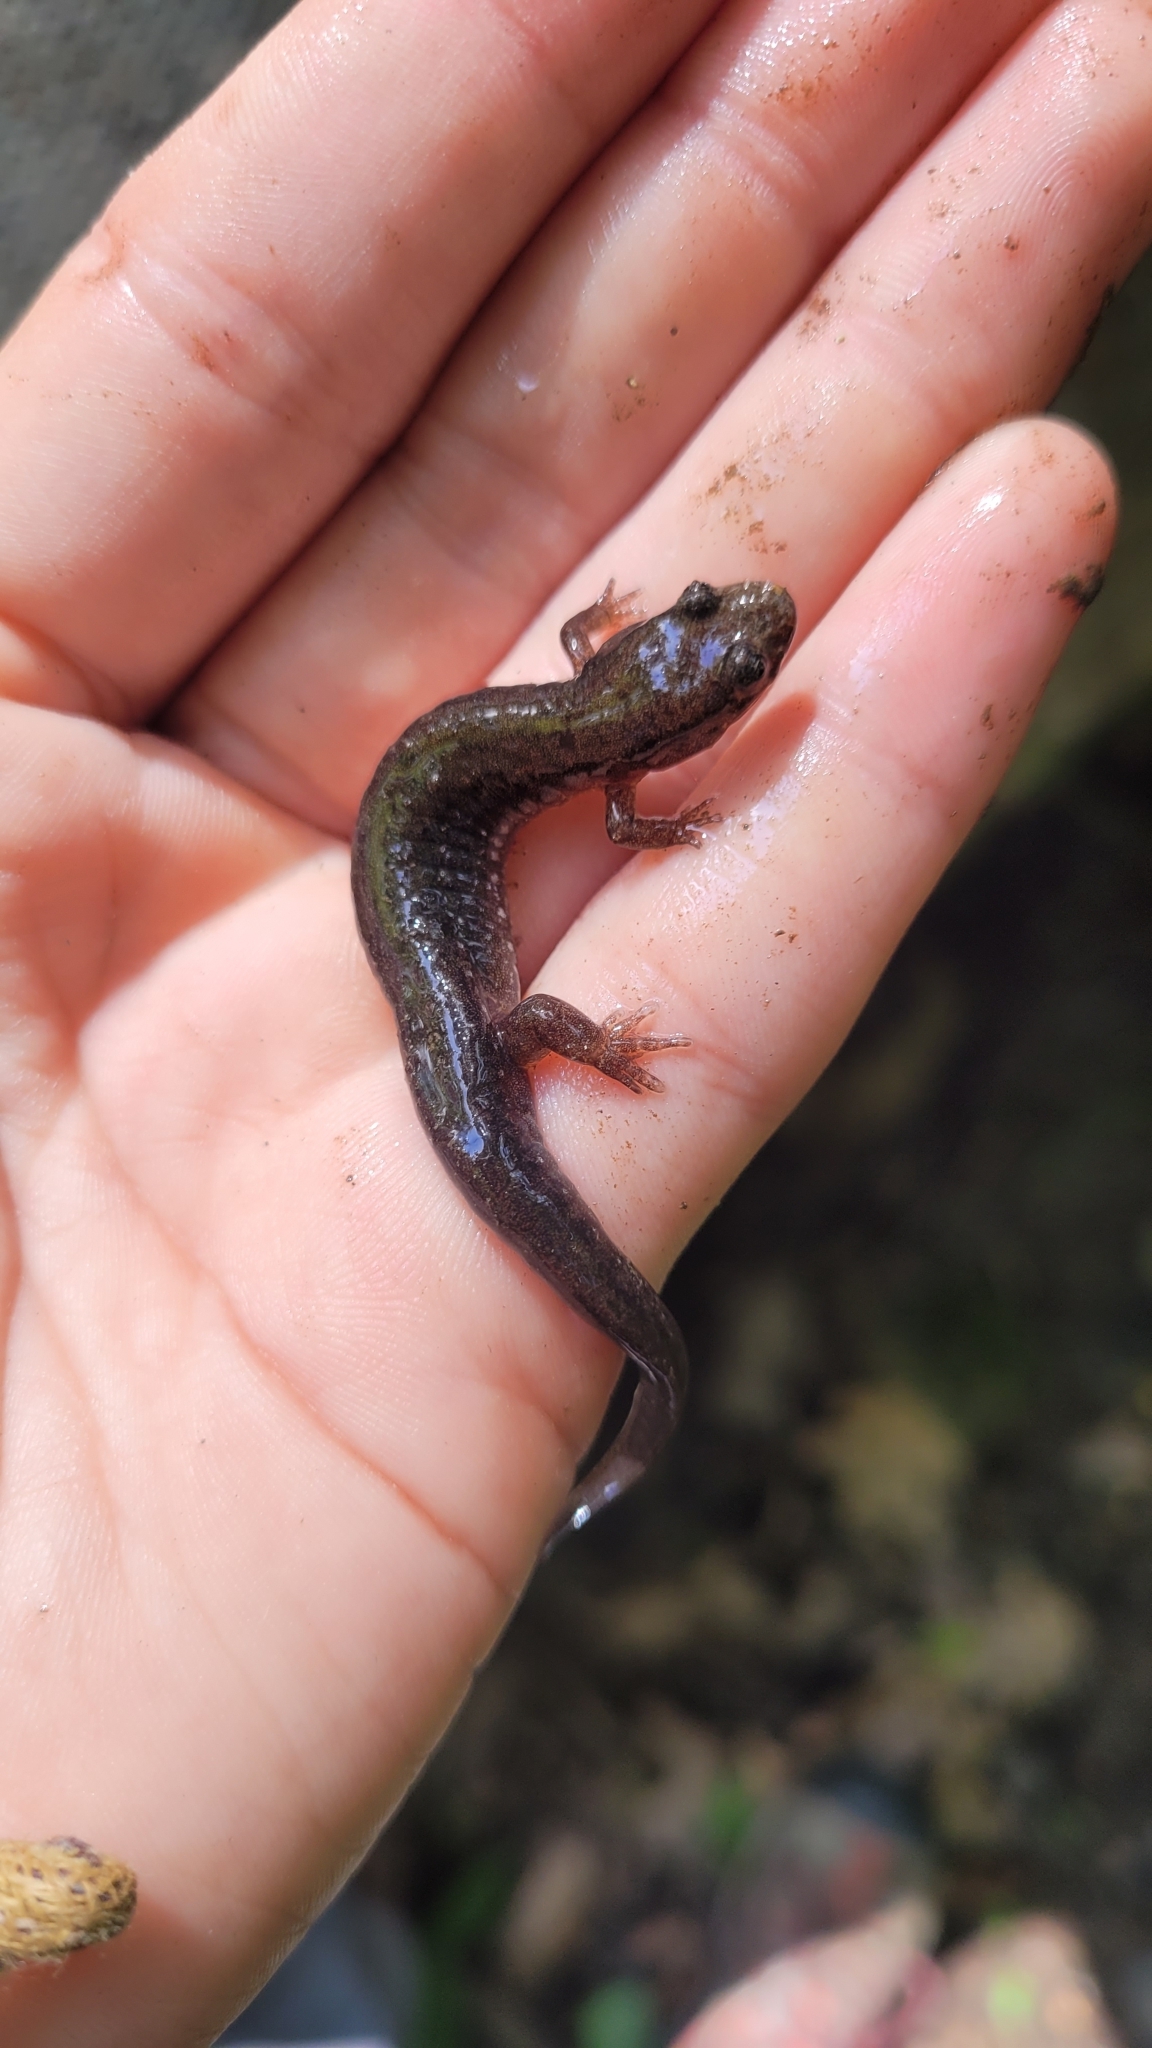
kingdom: Animalia
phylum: Chordata
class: Amphibia
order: Caudata
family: Plethodontidae
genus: Desmognathus
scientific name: Desmognathus fuscus
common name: Northern dusky salamander
